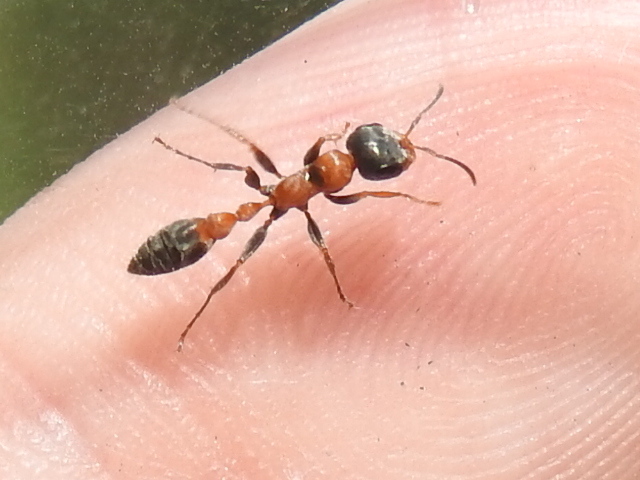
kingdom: Animalia
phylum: Arthropoda
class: Insecta
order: Hymenoptera
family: Formicidae
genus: Pseudomyrmex
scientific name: Pseudomyrmex gracilis
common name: Graceful twig ant
